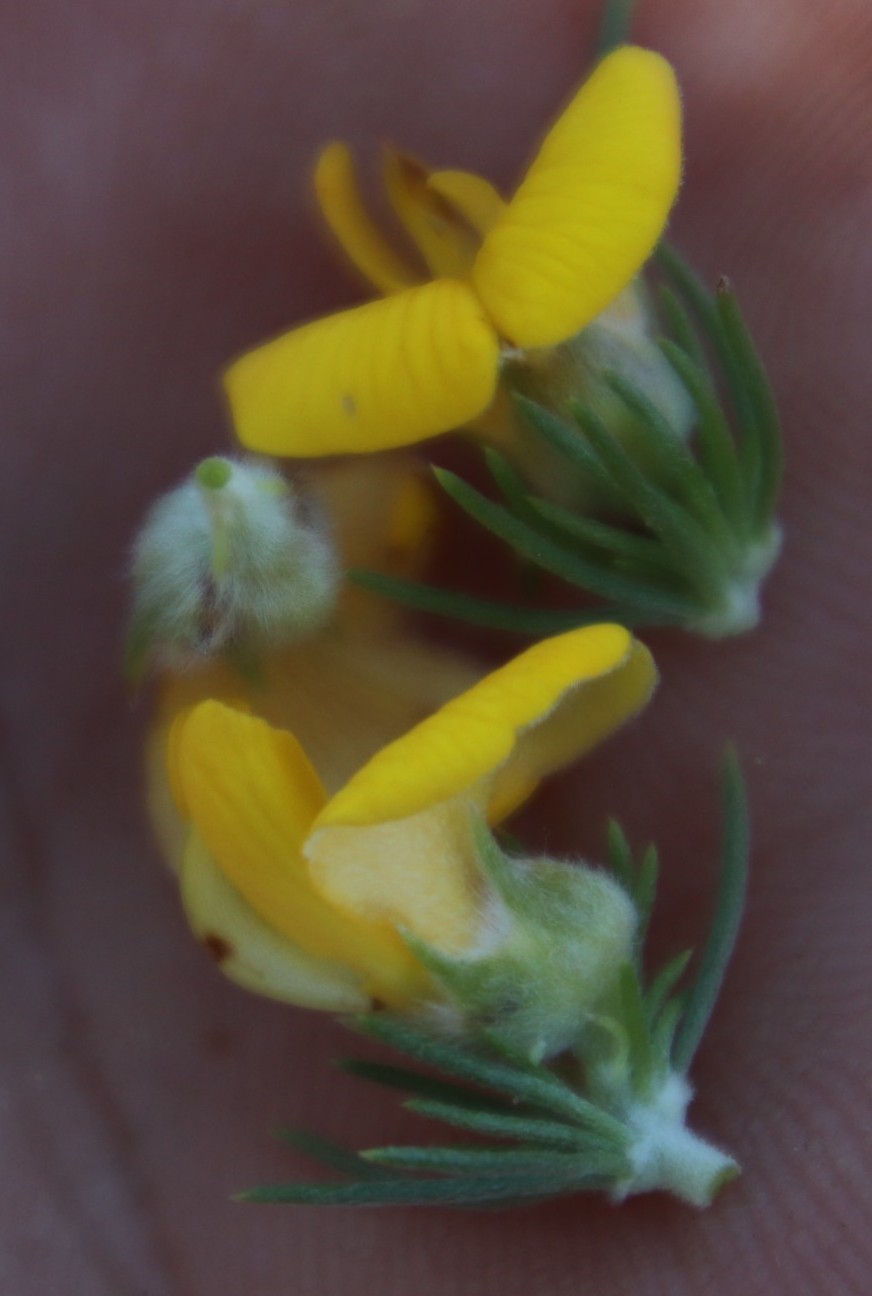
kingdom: Plantae
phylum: Tracheophyta
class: Magnoliopsida
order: Fabales
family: Fabaceae
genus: Aspalathus
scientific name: Aspalathus laricifolia
